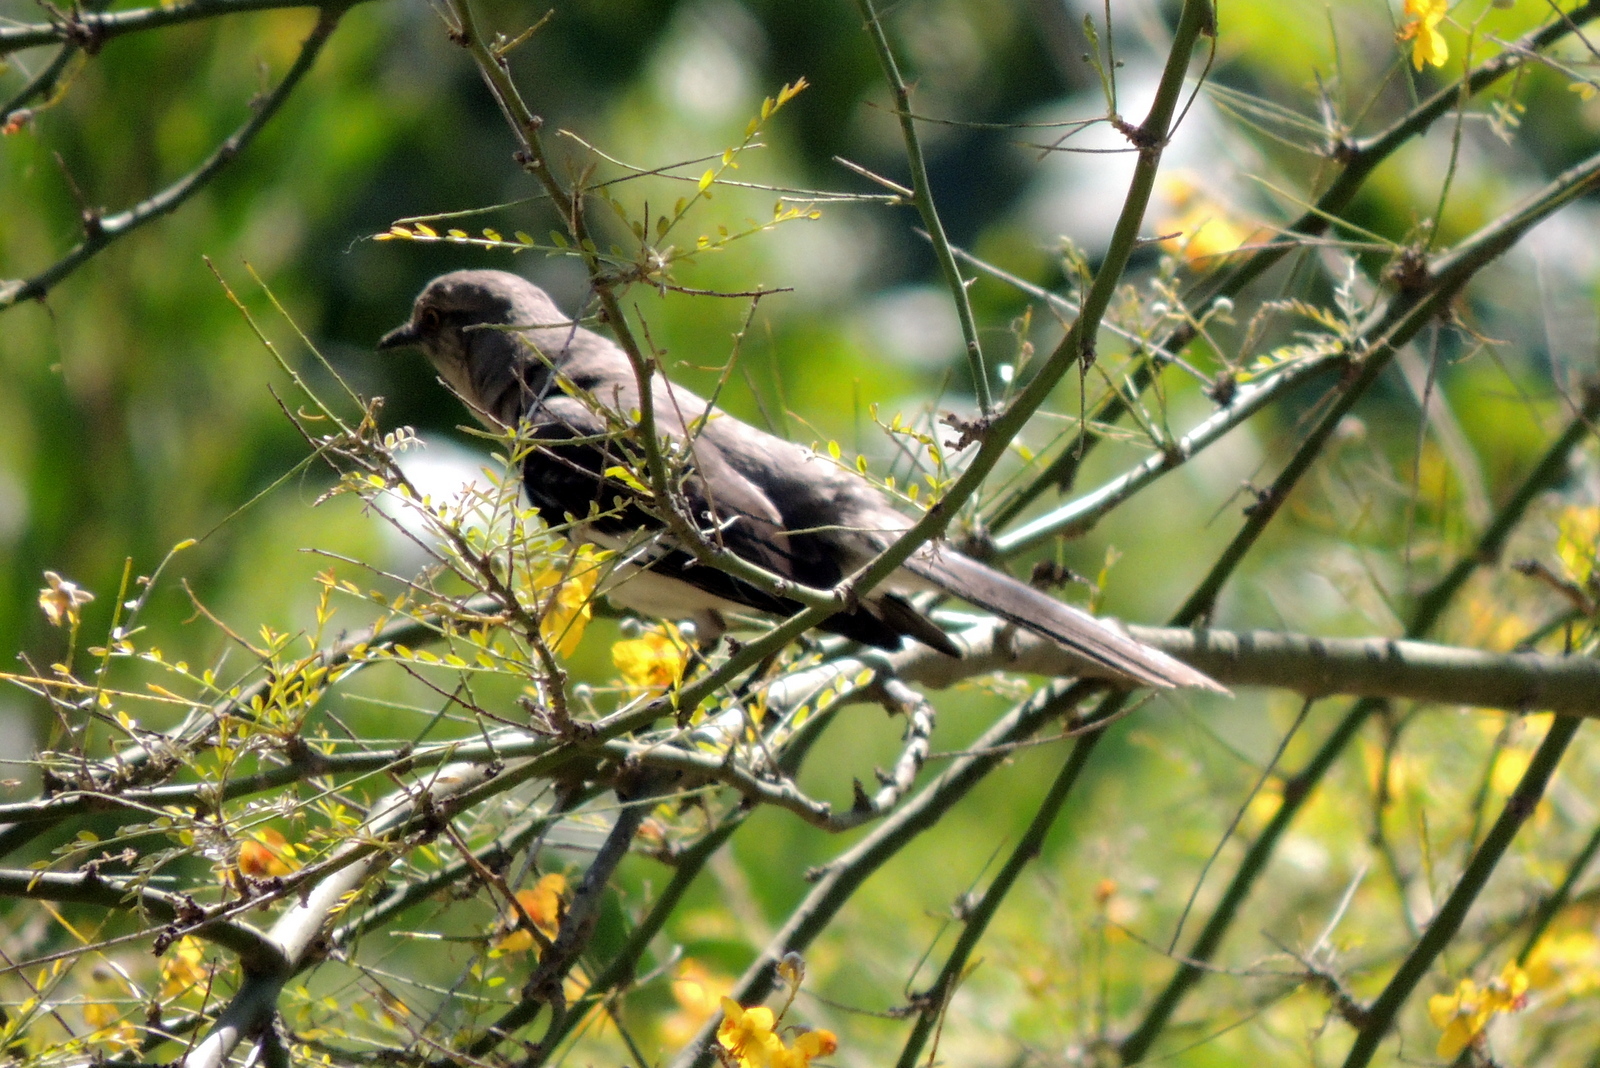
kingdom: Animalia
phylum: Chordata
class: Aves
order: Passeriformes
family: Mimidae
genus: Mimus
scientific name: Mimus polyglottos
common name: Northern mockingbird
